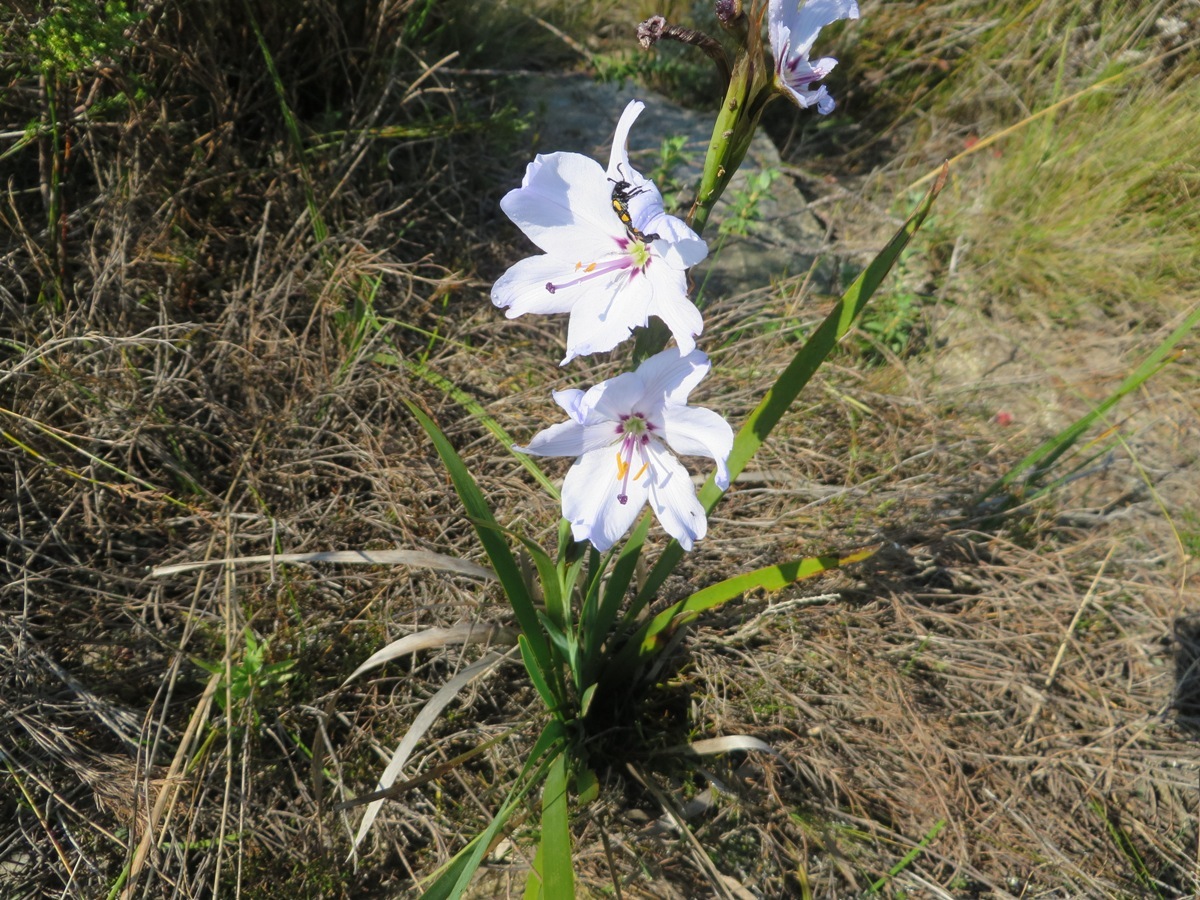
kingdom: Plantae
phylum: Tracheophyta
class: Liliopsida
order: Asparagales
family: Iridaceae
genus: Aristea
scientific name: Aristea spiralis
